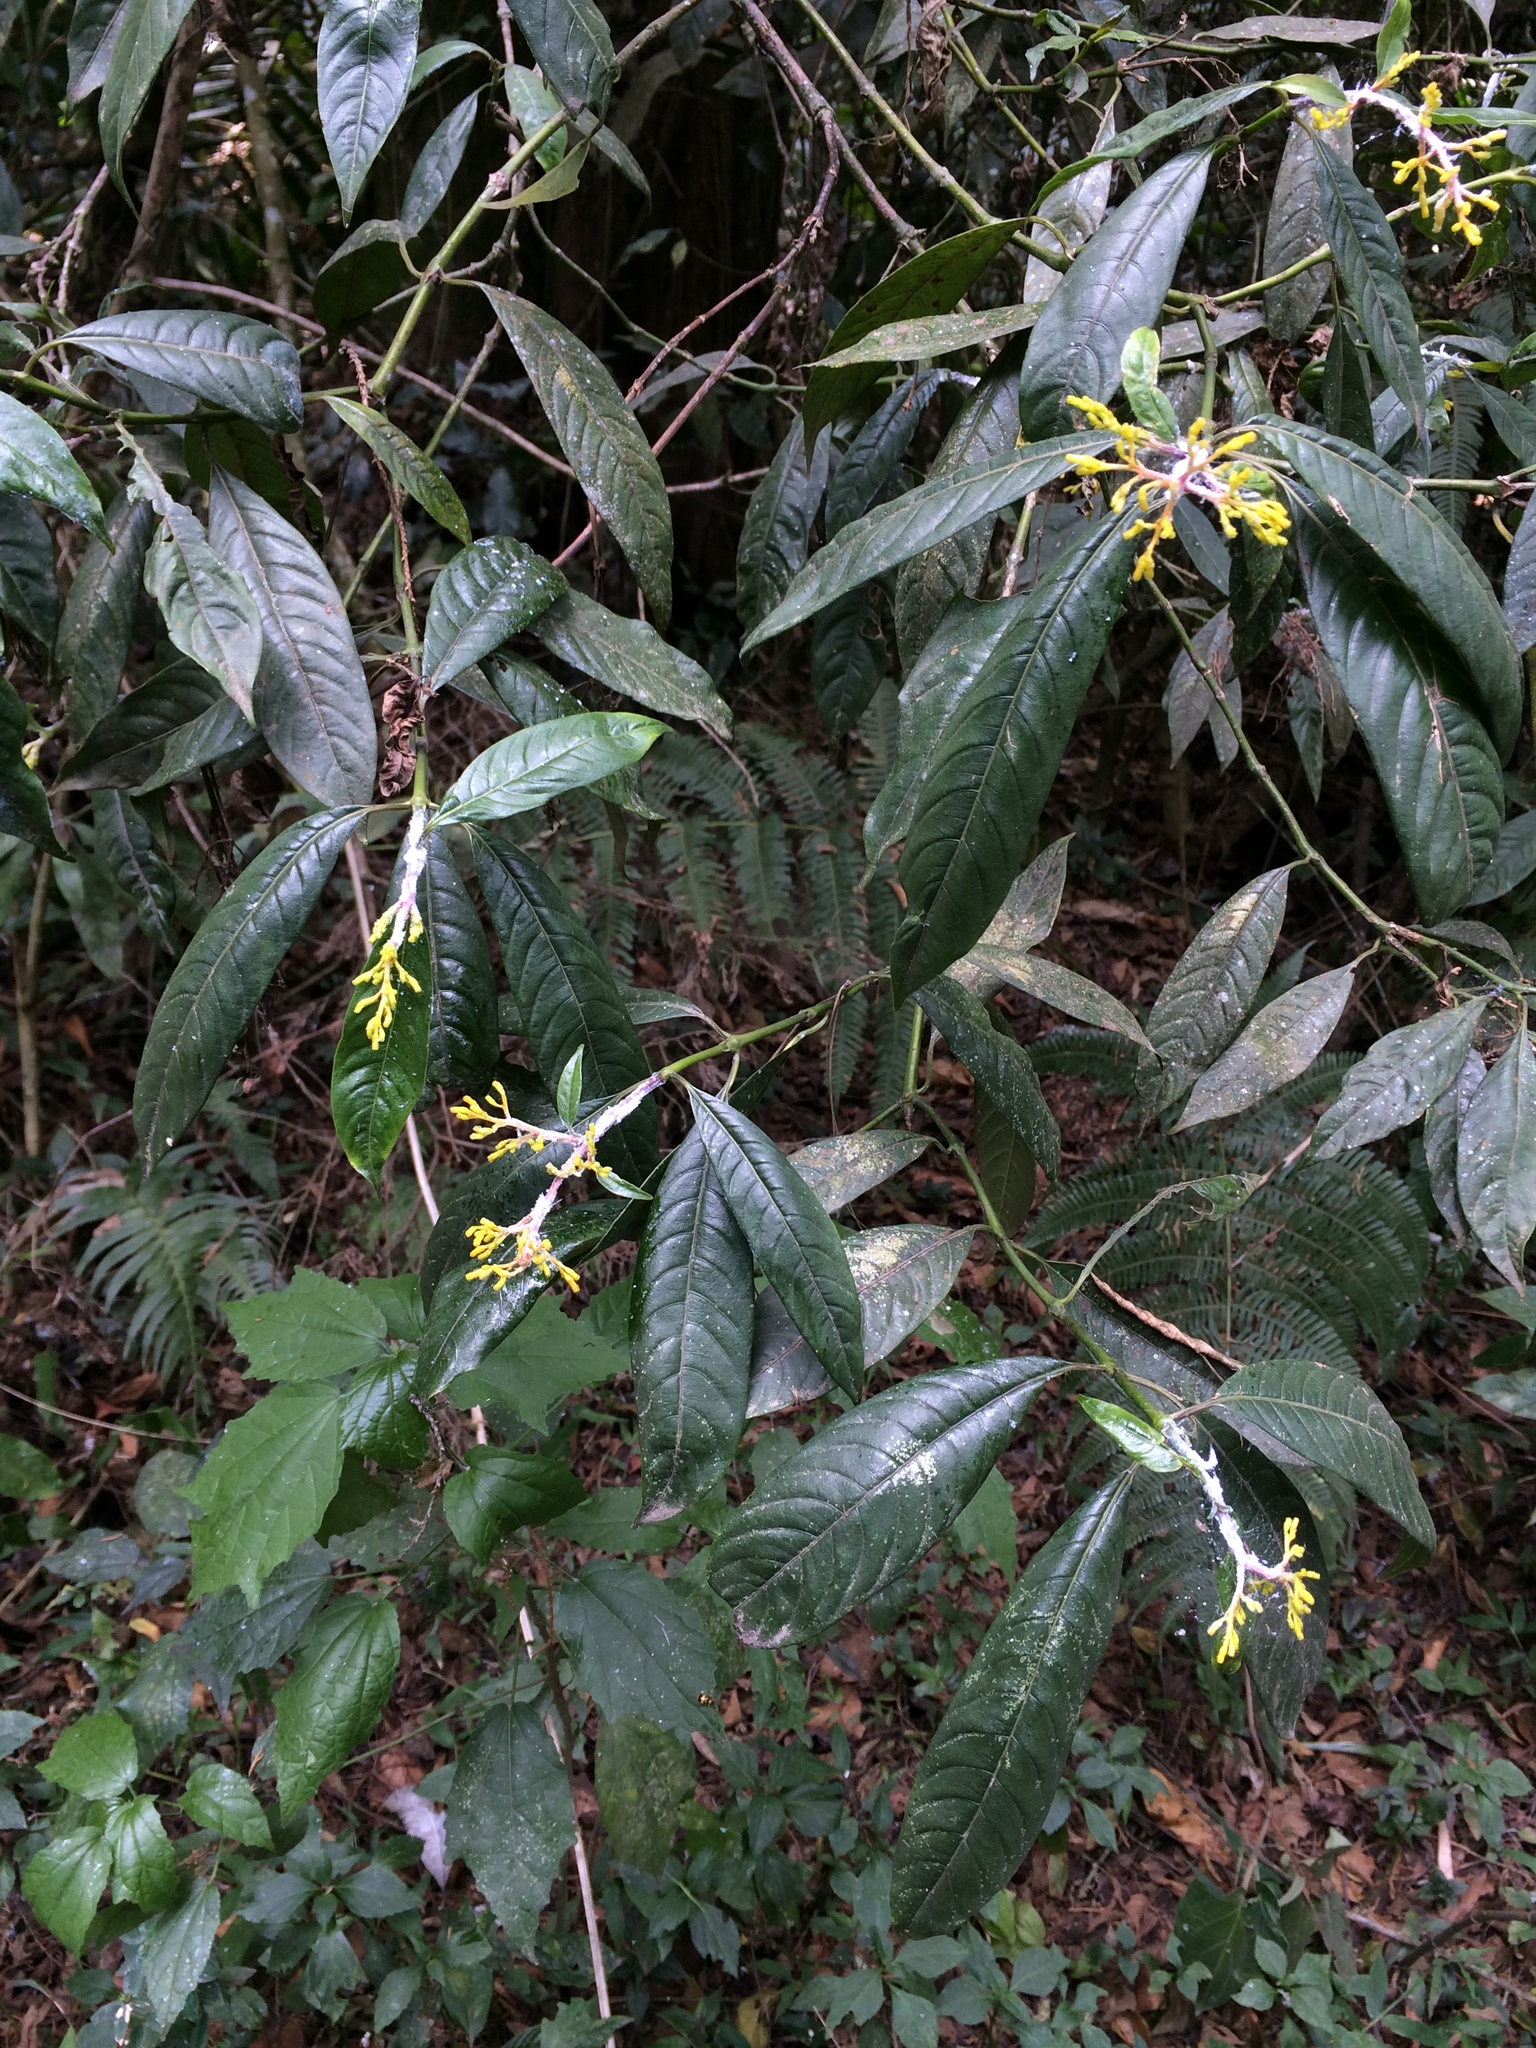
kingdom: Plantae
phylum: Tracheophyta
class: Magnoliopsida
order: Gentianales
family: Rubiaceae
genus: Palicourea
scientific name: Palicourea padifolia
